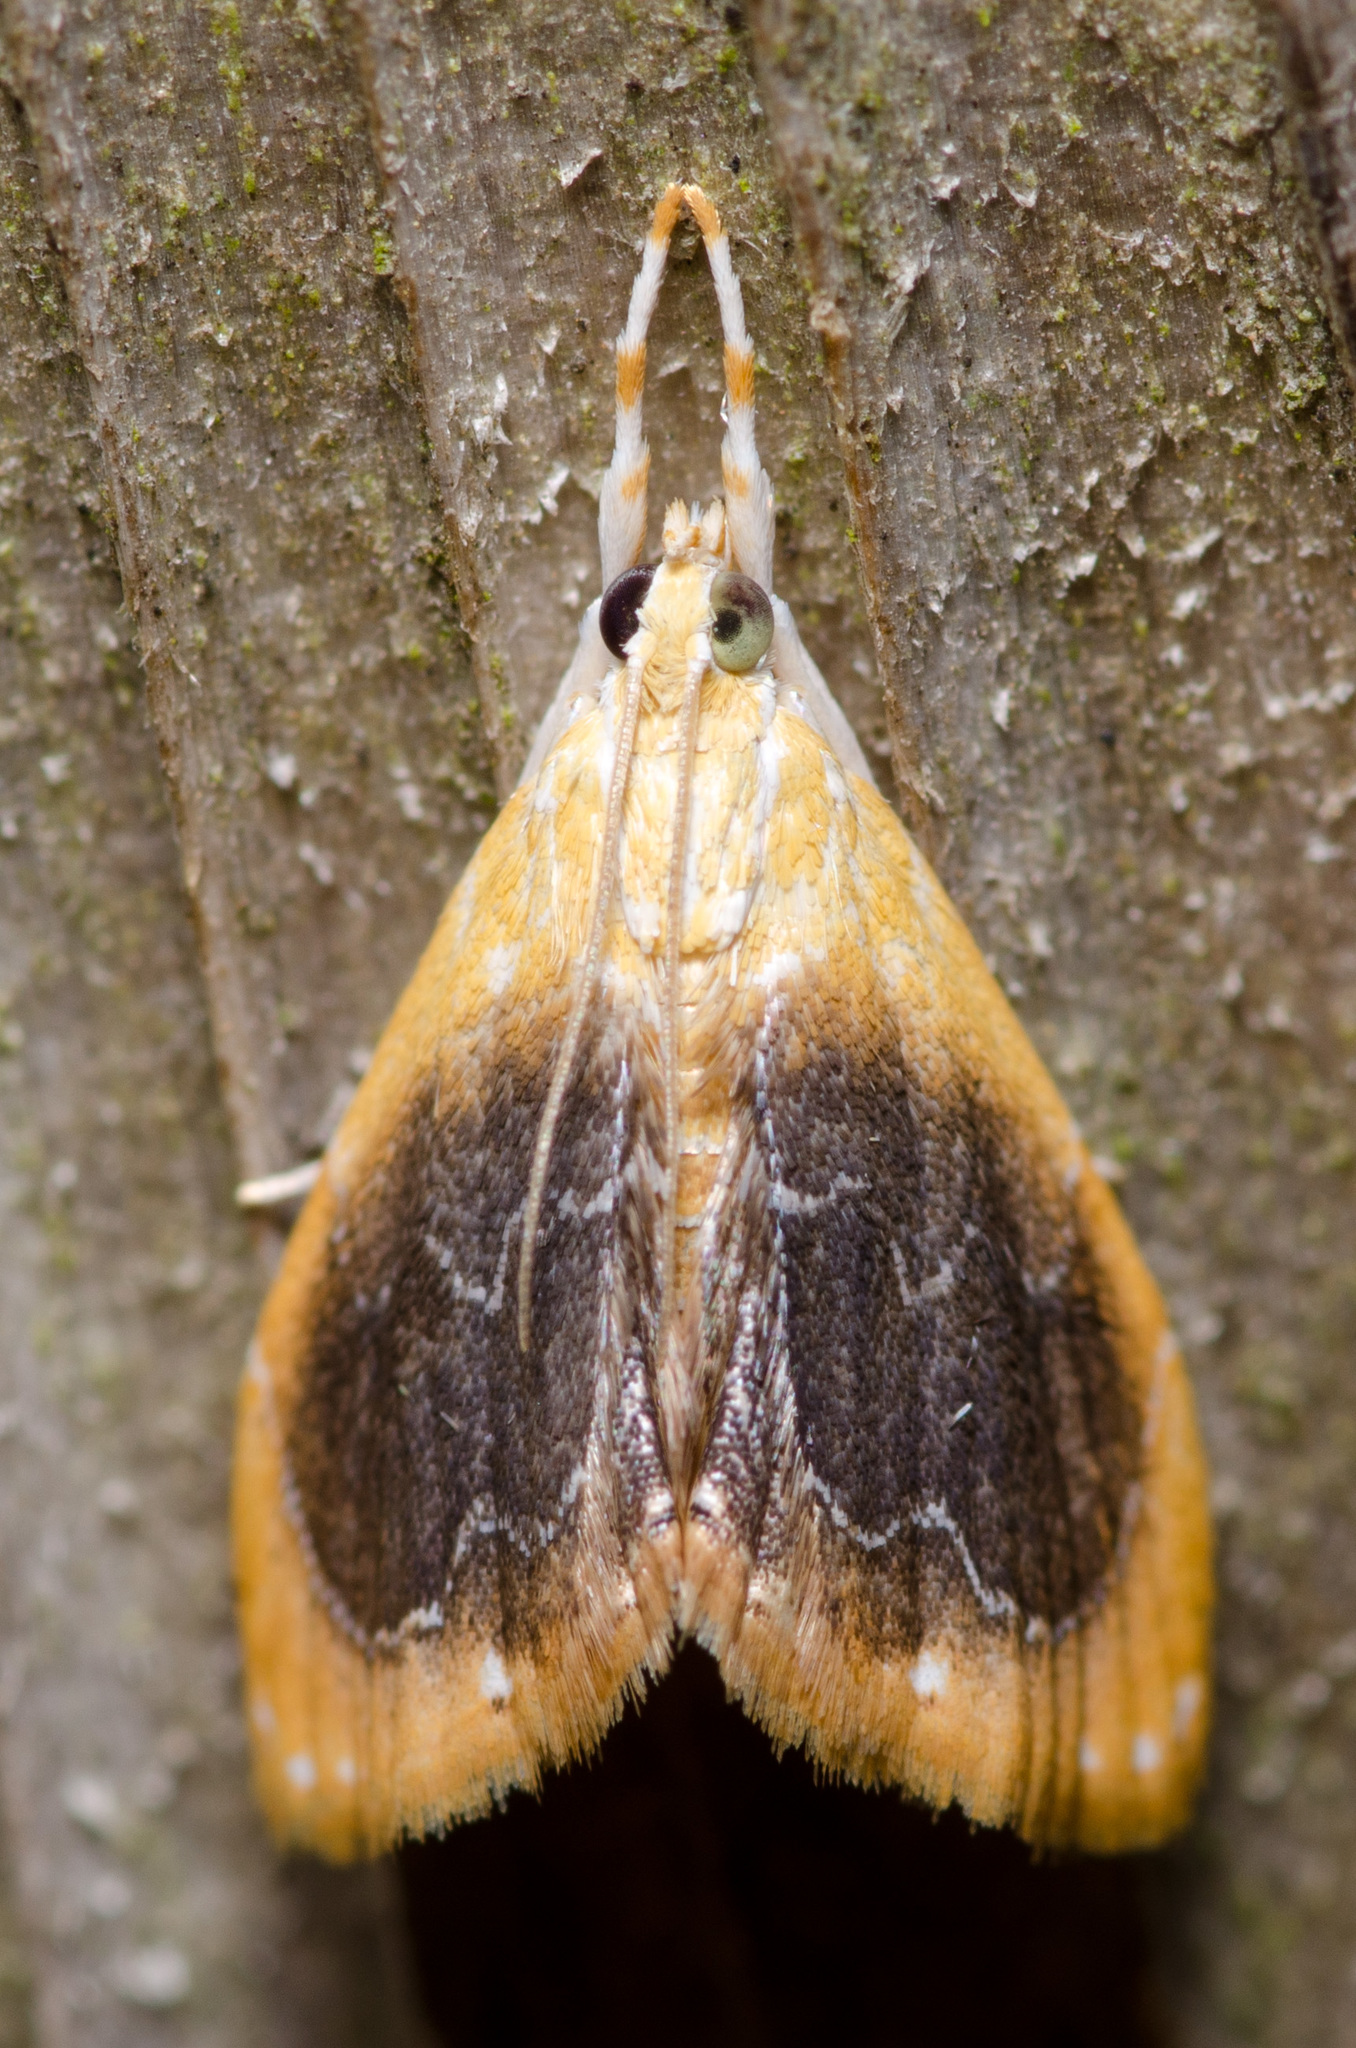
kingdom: Animalia
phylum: Arthropoda
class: Insecta
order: Lepidoptera
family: Crambidae
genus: Glaphyria
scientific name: Glaphyria fulminalis
